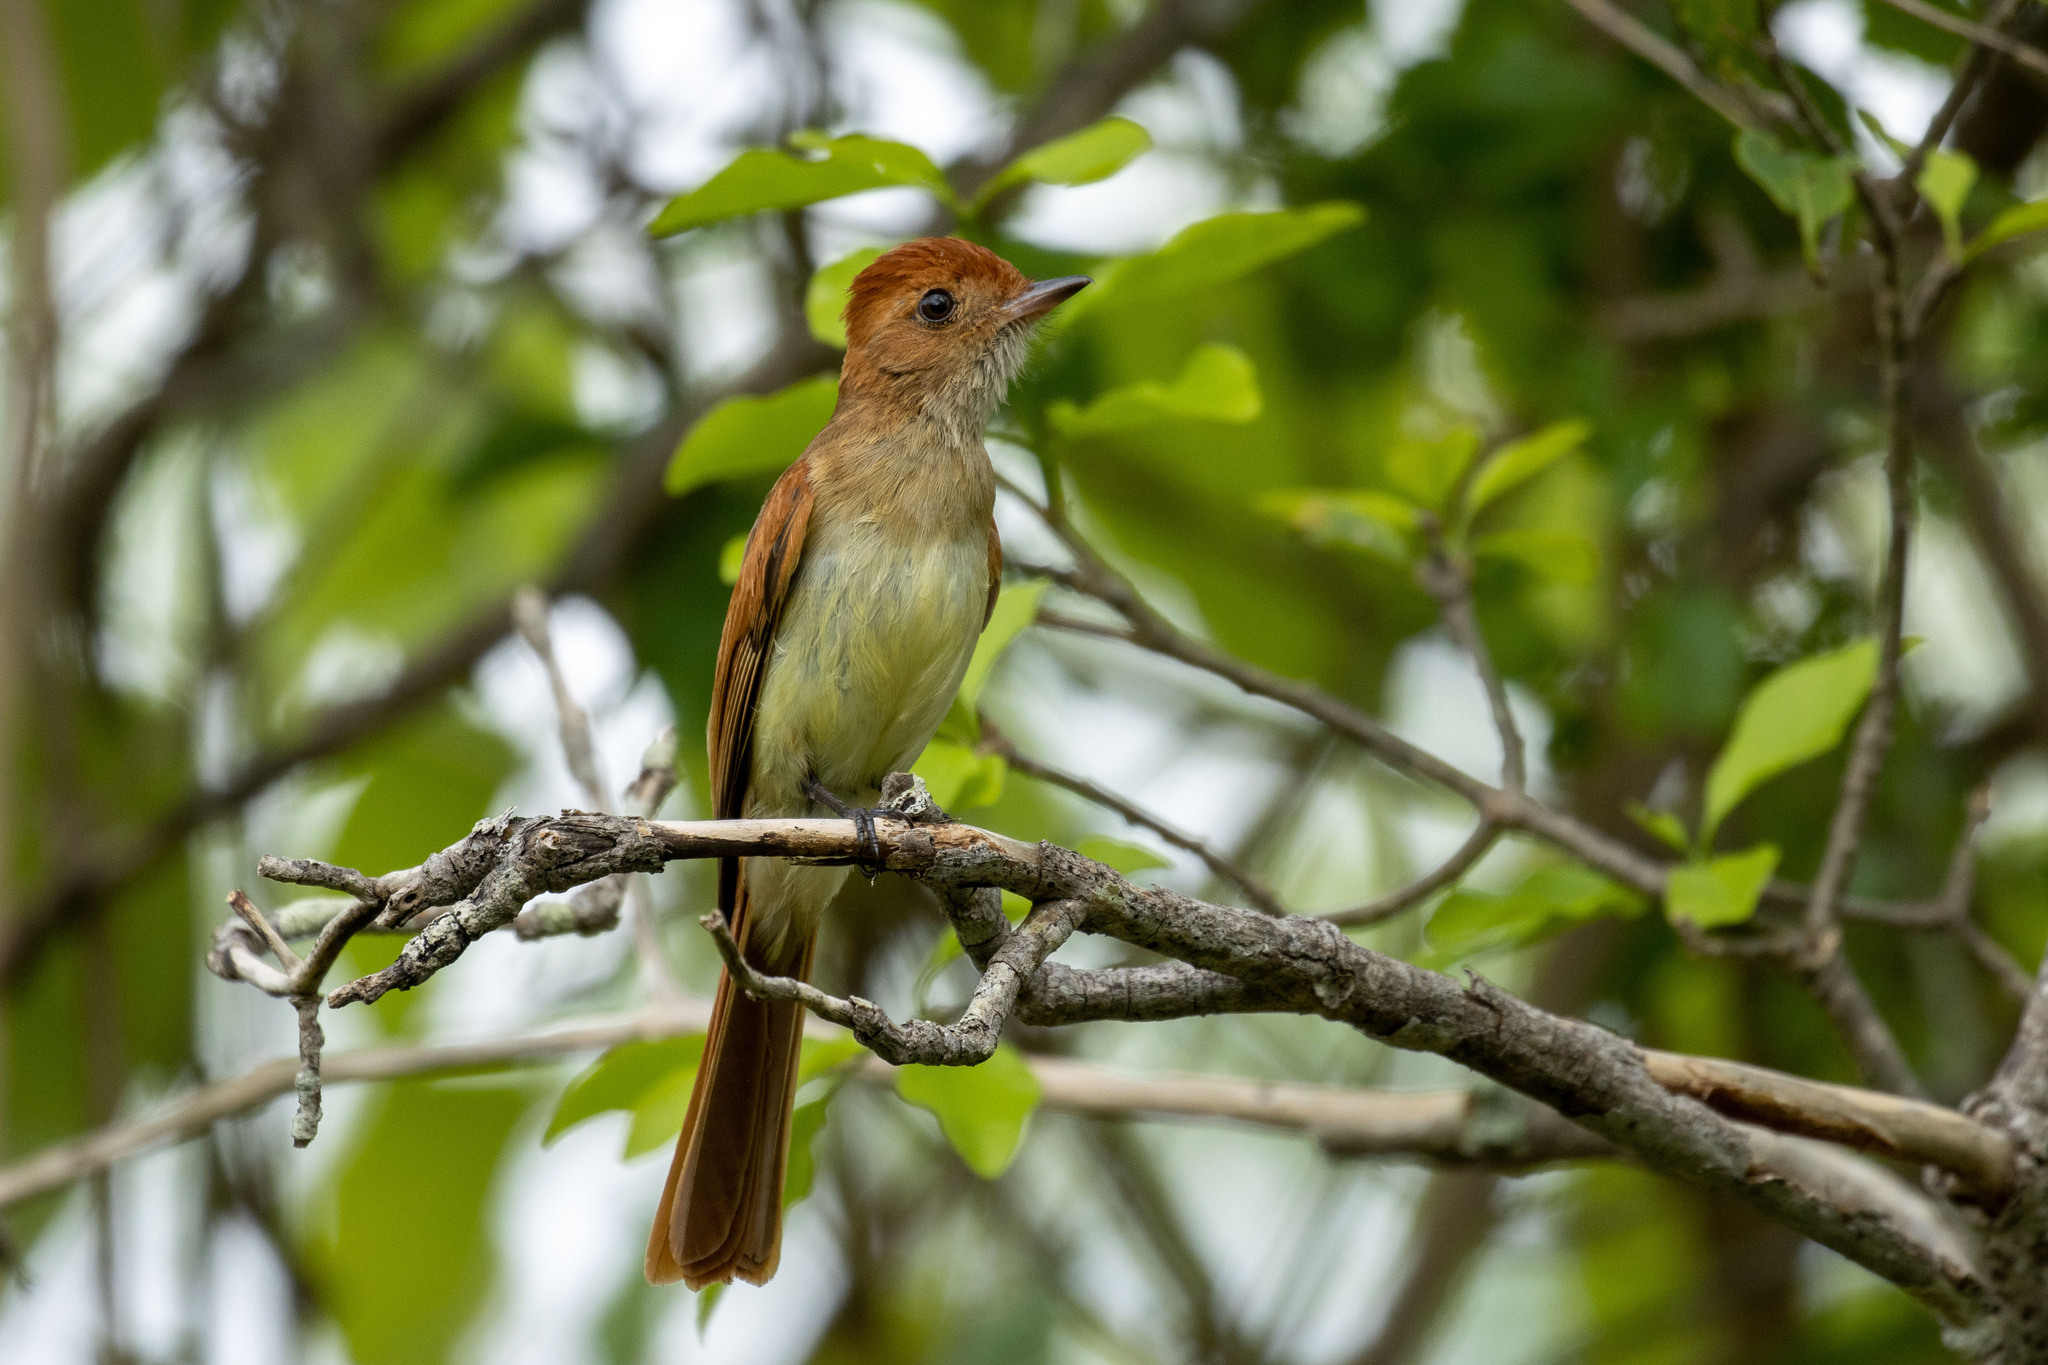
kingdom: Animalia
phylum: Chordata
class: Aves
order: Passeriformes
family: Tyrannidae
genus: Casiornis
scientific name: Casiornis fuscus
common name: Ash-throated casiornis
